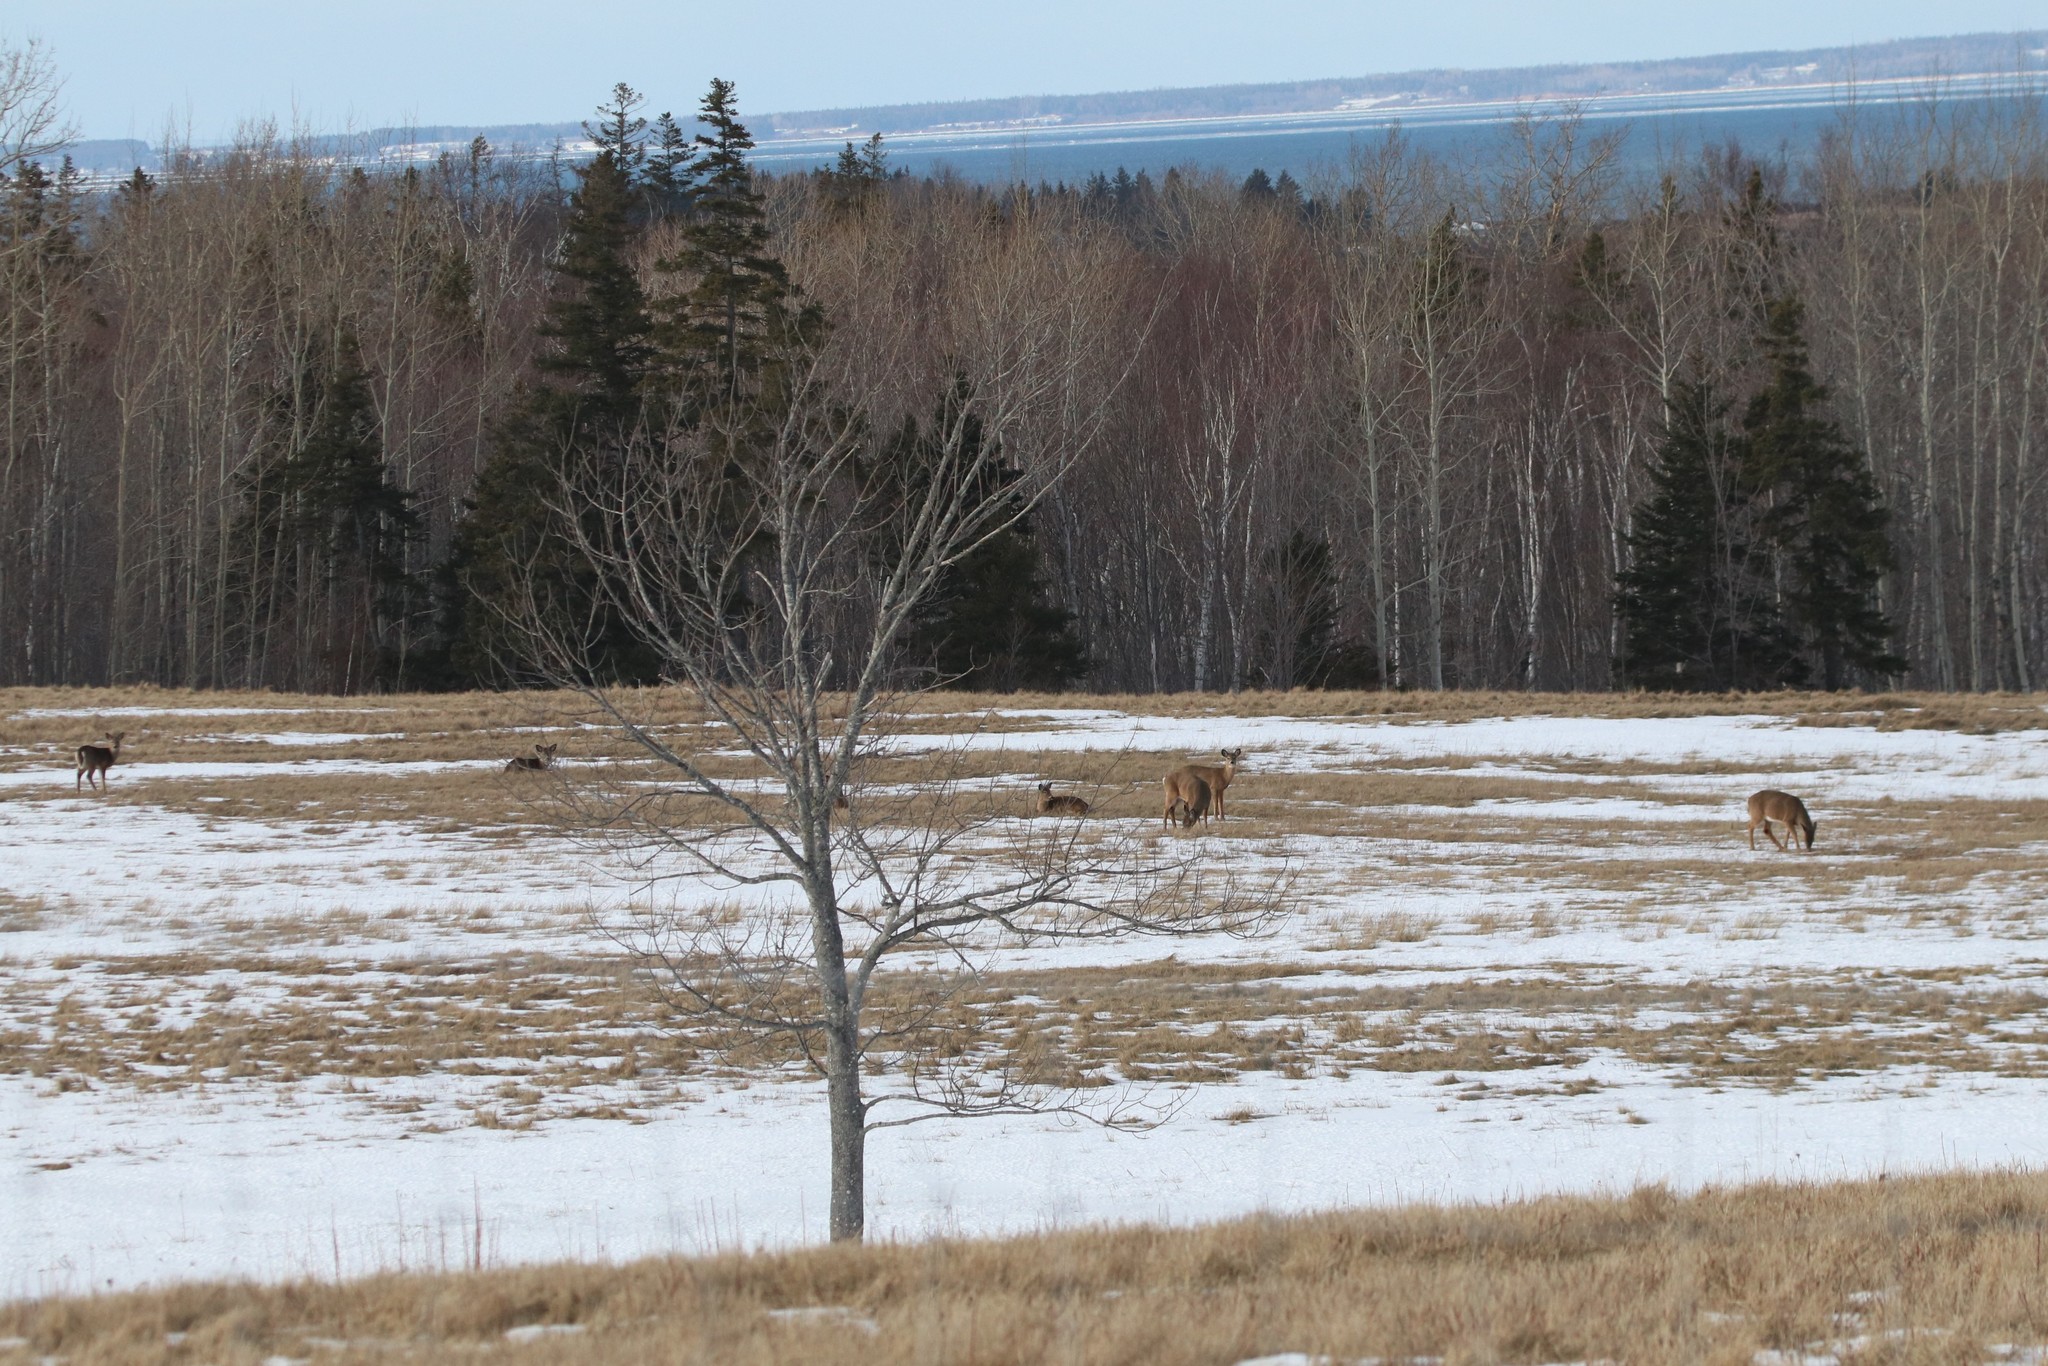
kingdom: Animalia
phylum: Chordata
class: Mammalia
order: Artiodactyla
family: Cervidae
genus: Odocoileus
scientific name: Odocoileus virginianus
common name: White-tailed deer
